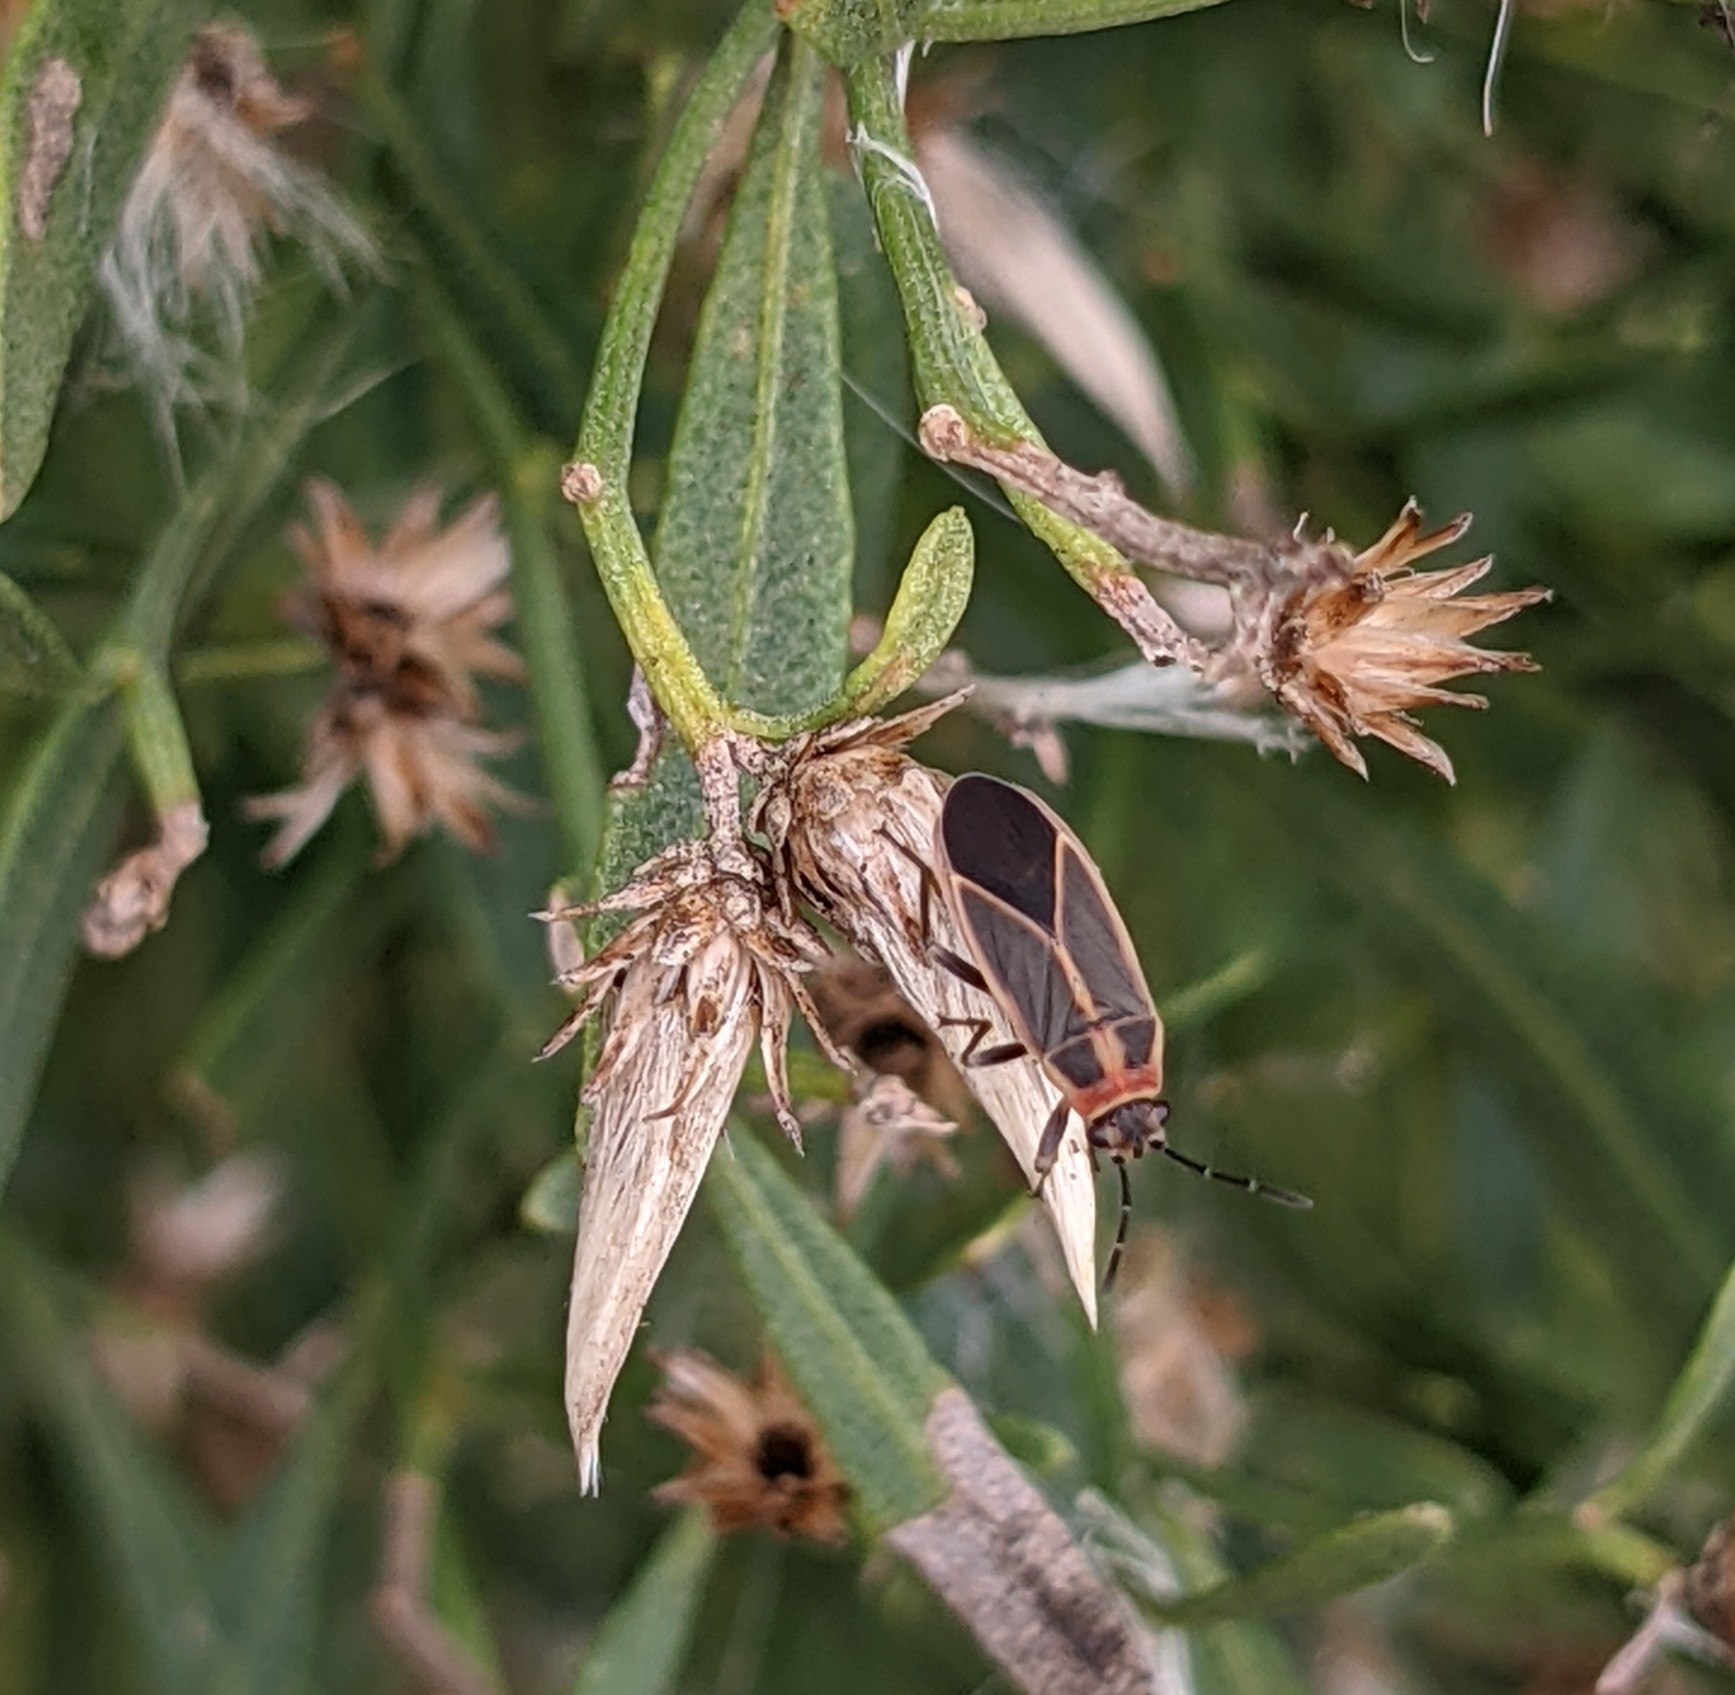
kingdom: Animalia
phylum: Arthropoda
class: Insecta
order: Hemiptera
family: Lygaeidae
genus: Ochrimnus
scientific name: Ochrimnus mimulus
